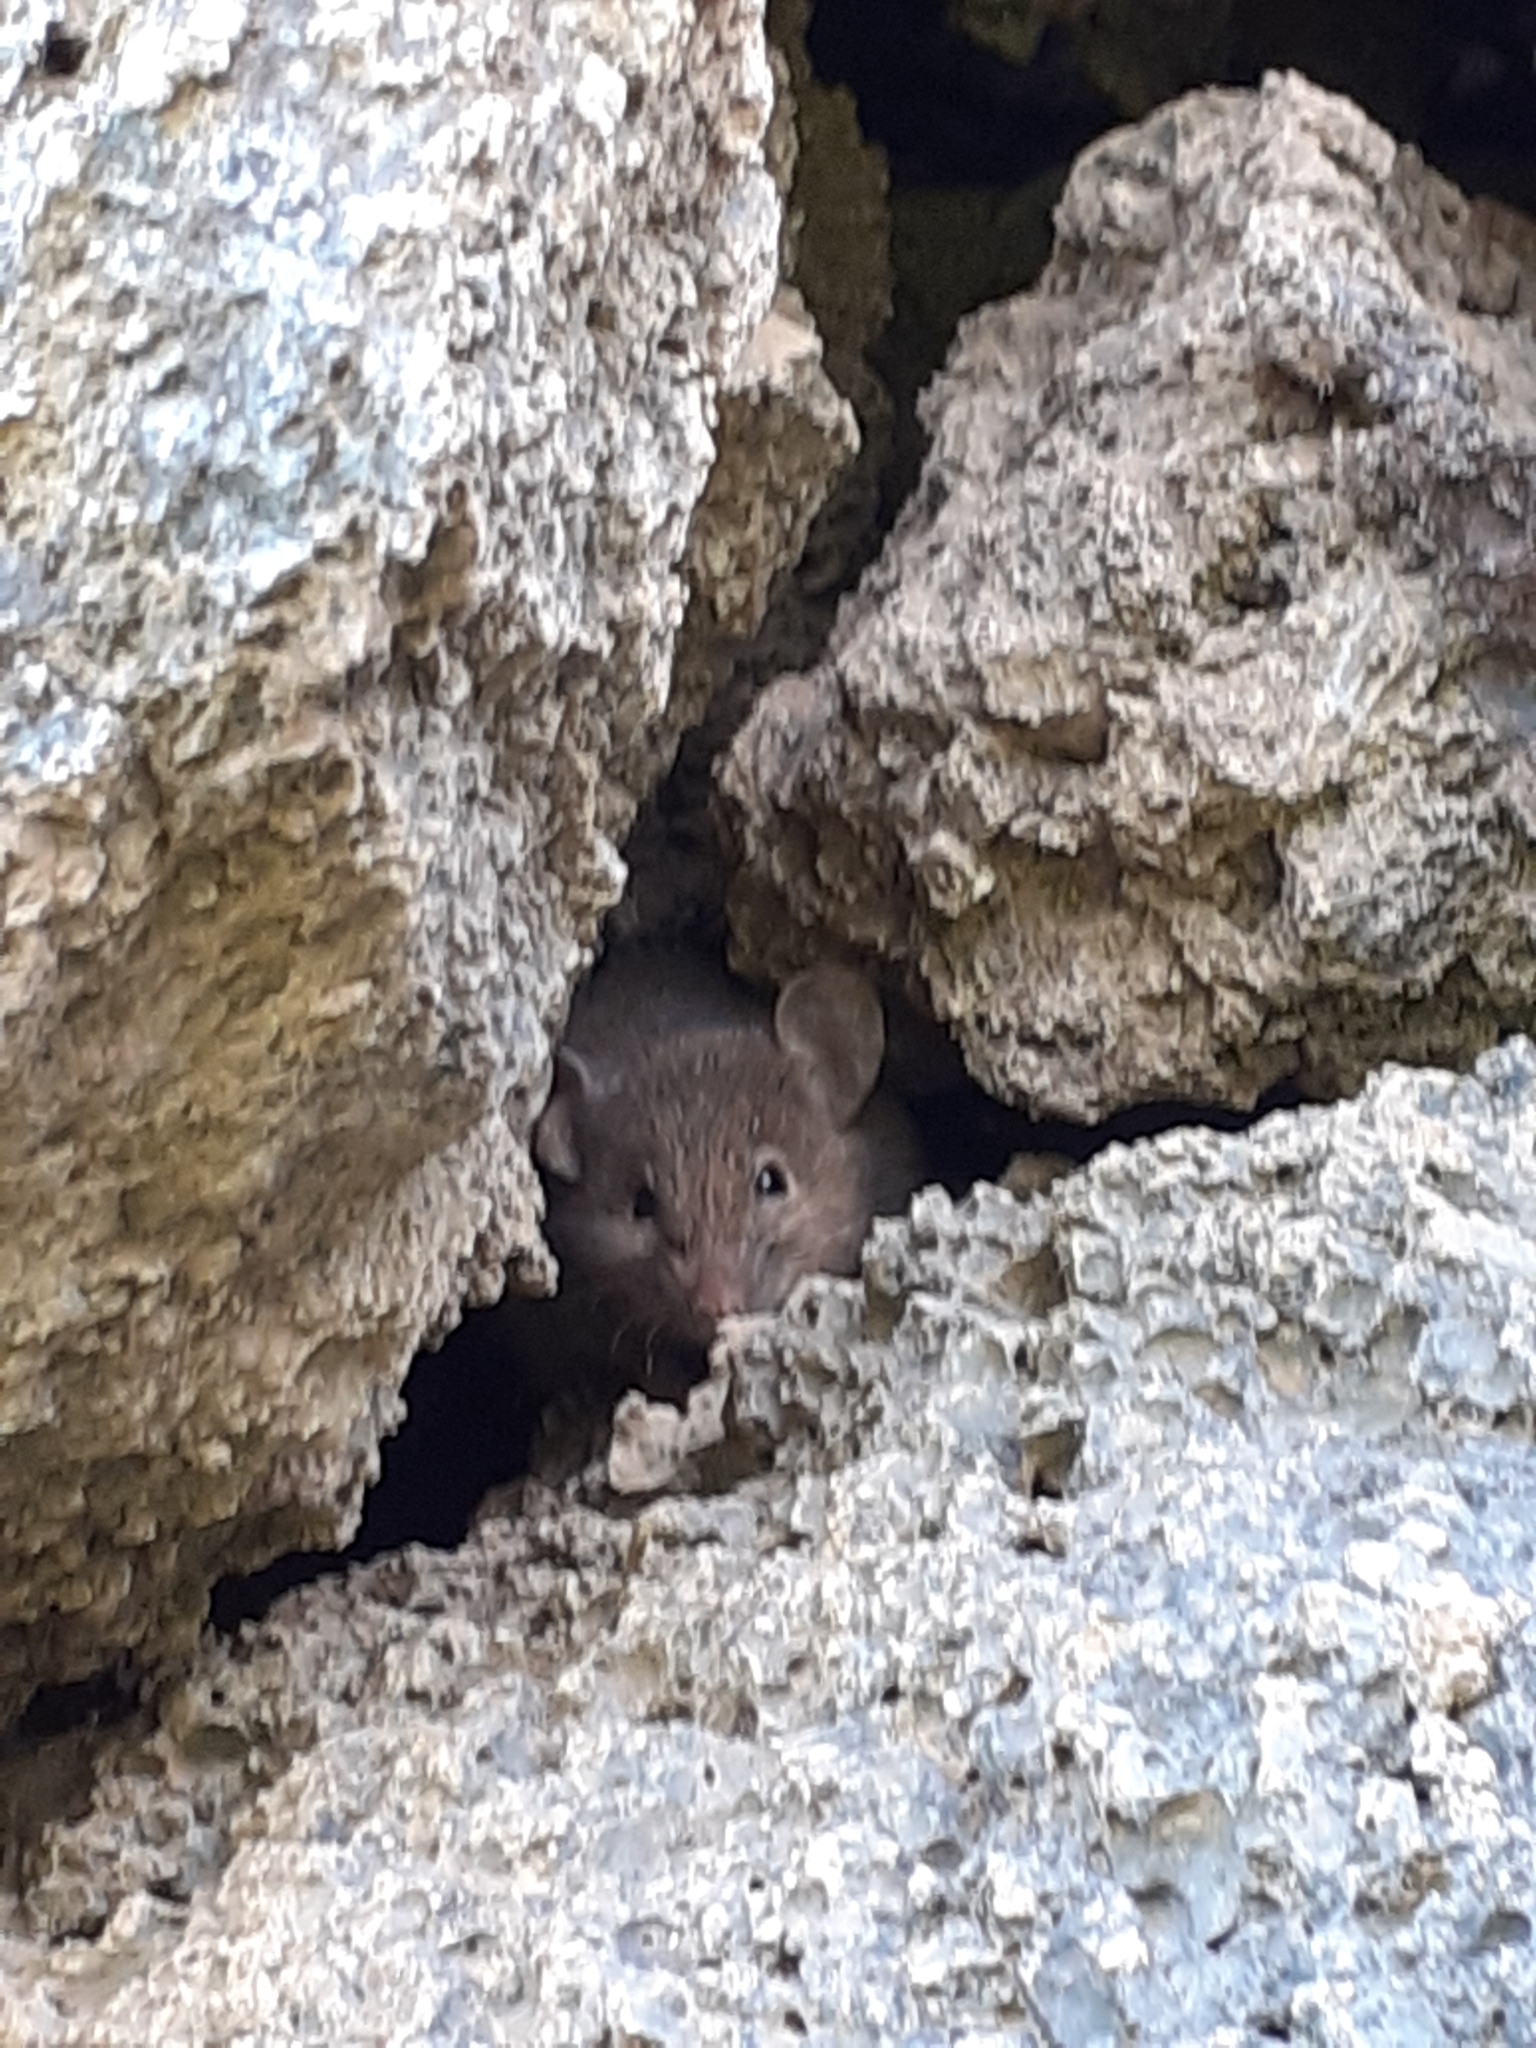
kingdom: Animalia
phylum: Chordata
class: Mammalia
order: Rodentia
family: Muridae
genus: Mus
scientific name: Mus musculus
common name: House mouse
